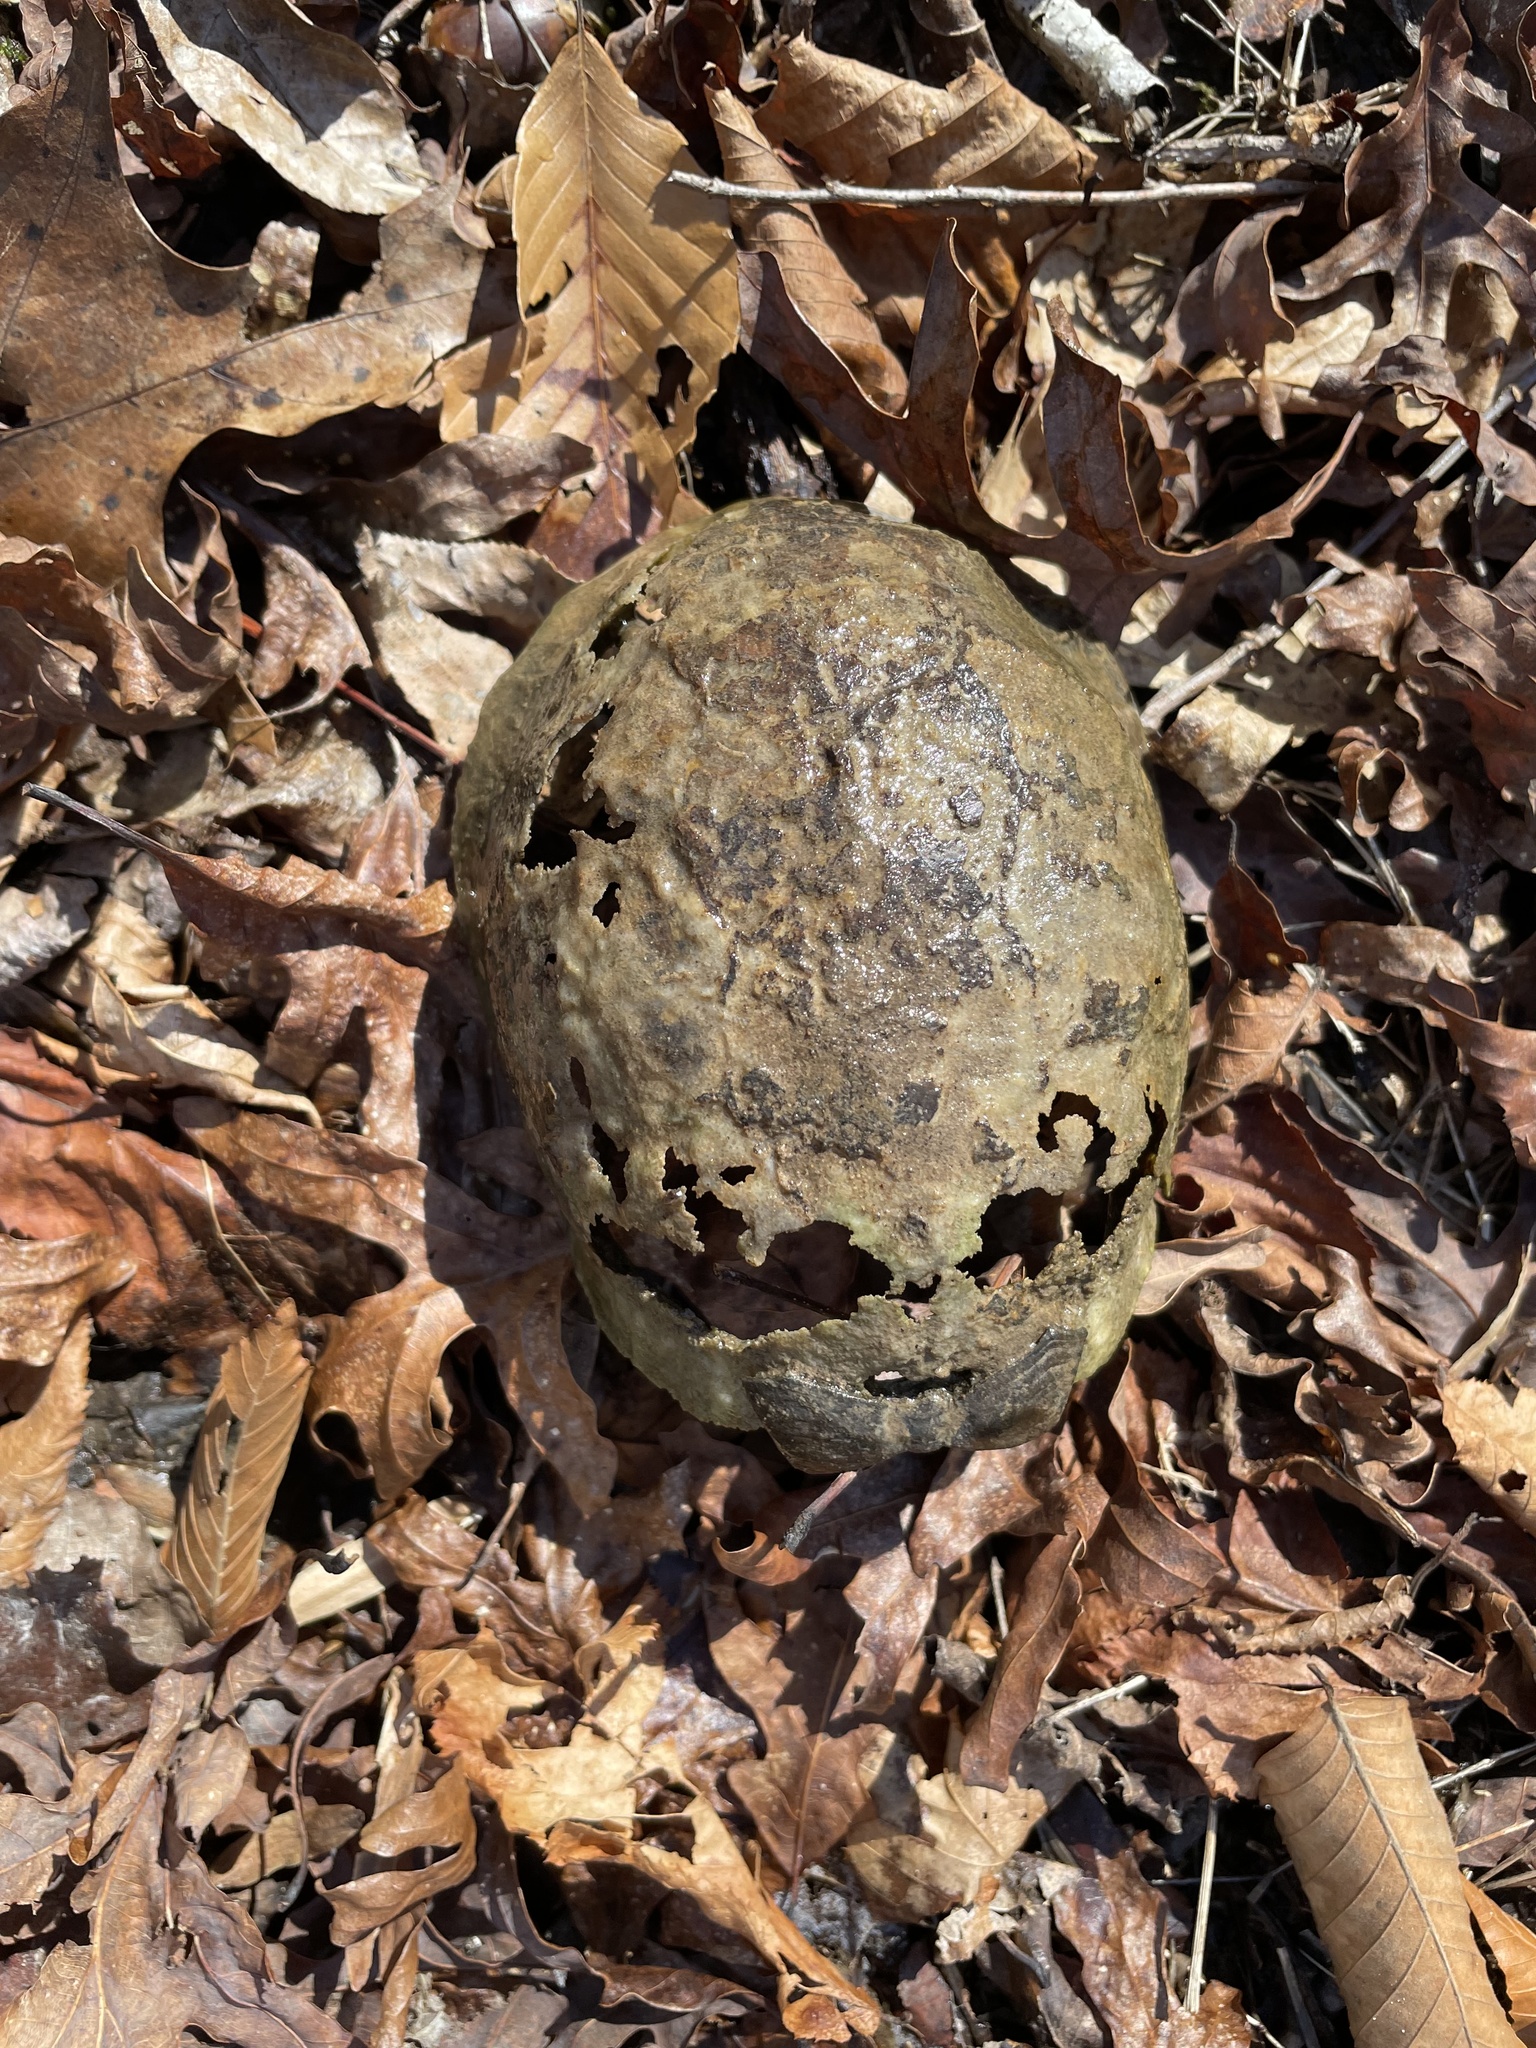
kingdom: Animalia
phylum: Chordata
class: Testudines
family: Emydidae
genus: Terrapene
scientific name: Terrapene carolina
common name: Common box turtle
